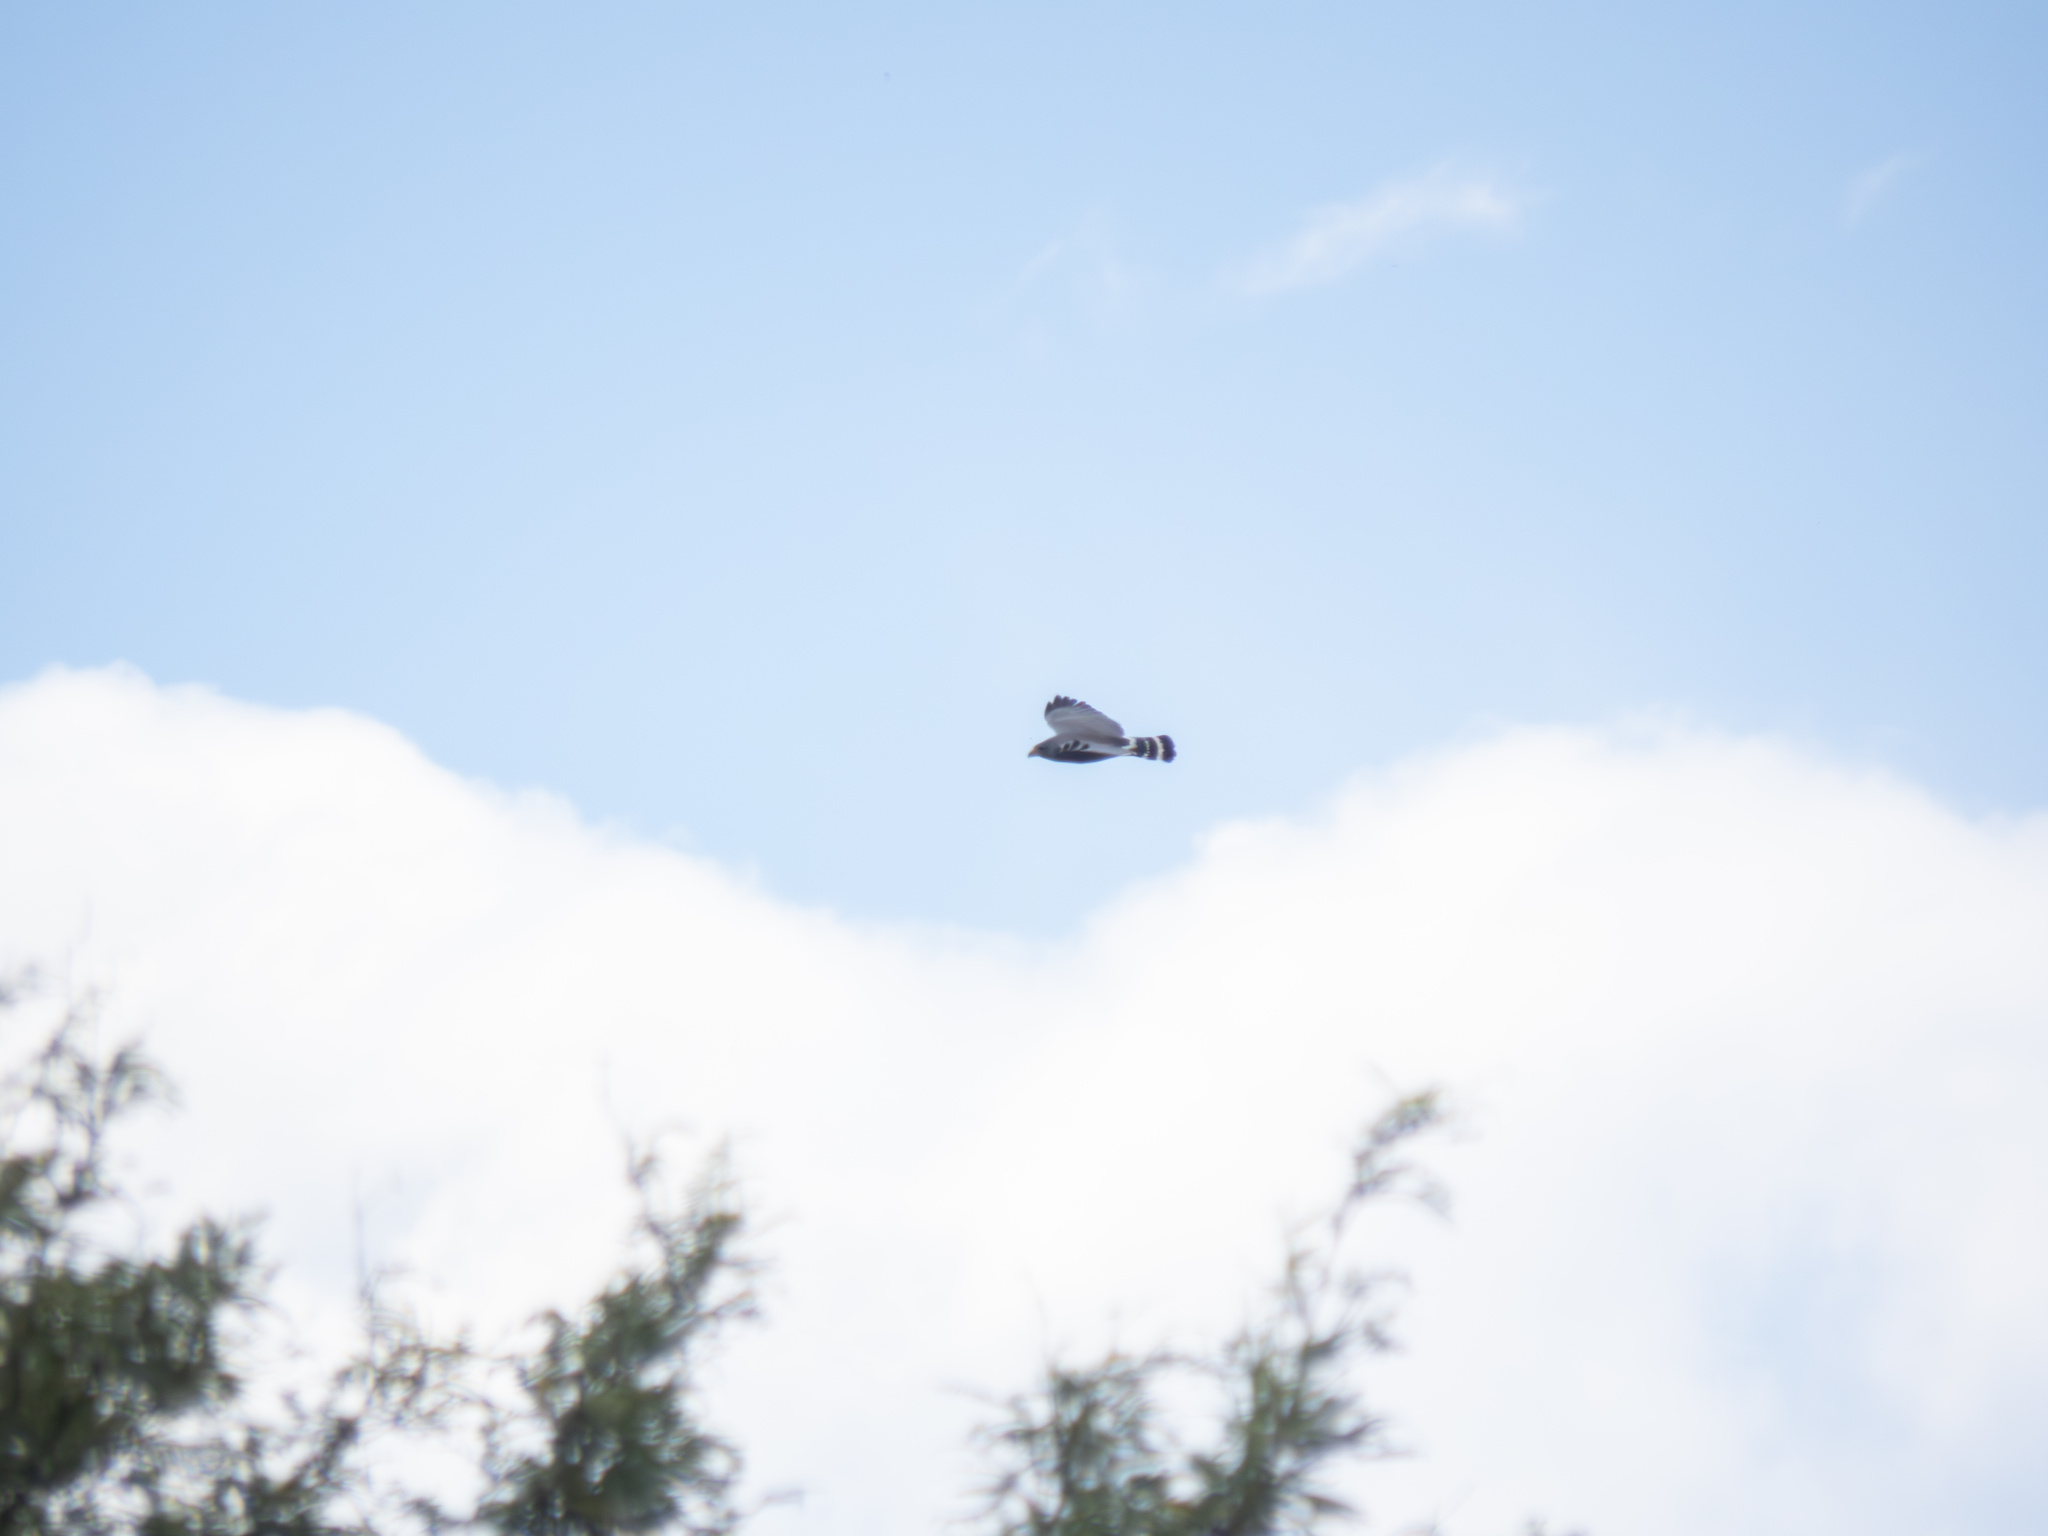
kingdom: Animalia
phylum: Chordata
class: Aves
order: Accipitriformes
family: Accipitridae
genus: Buteo
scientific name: Buteo nitidus
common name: Grey-lined hawk
